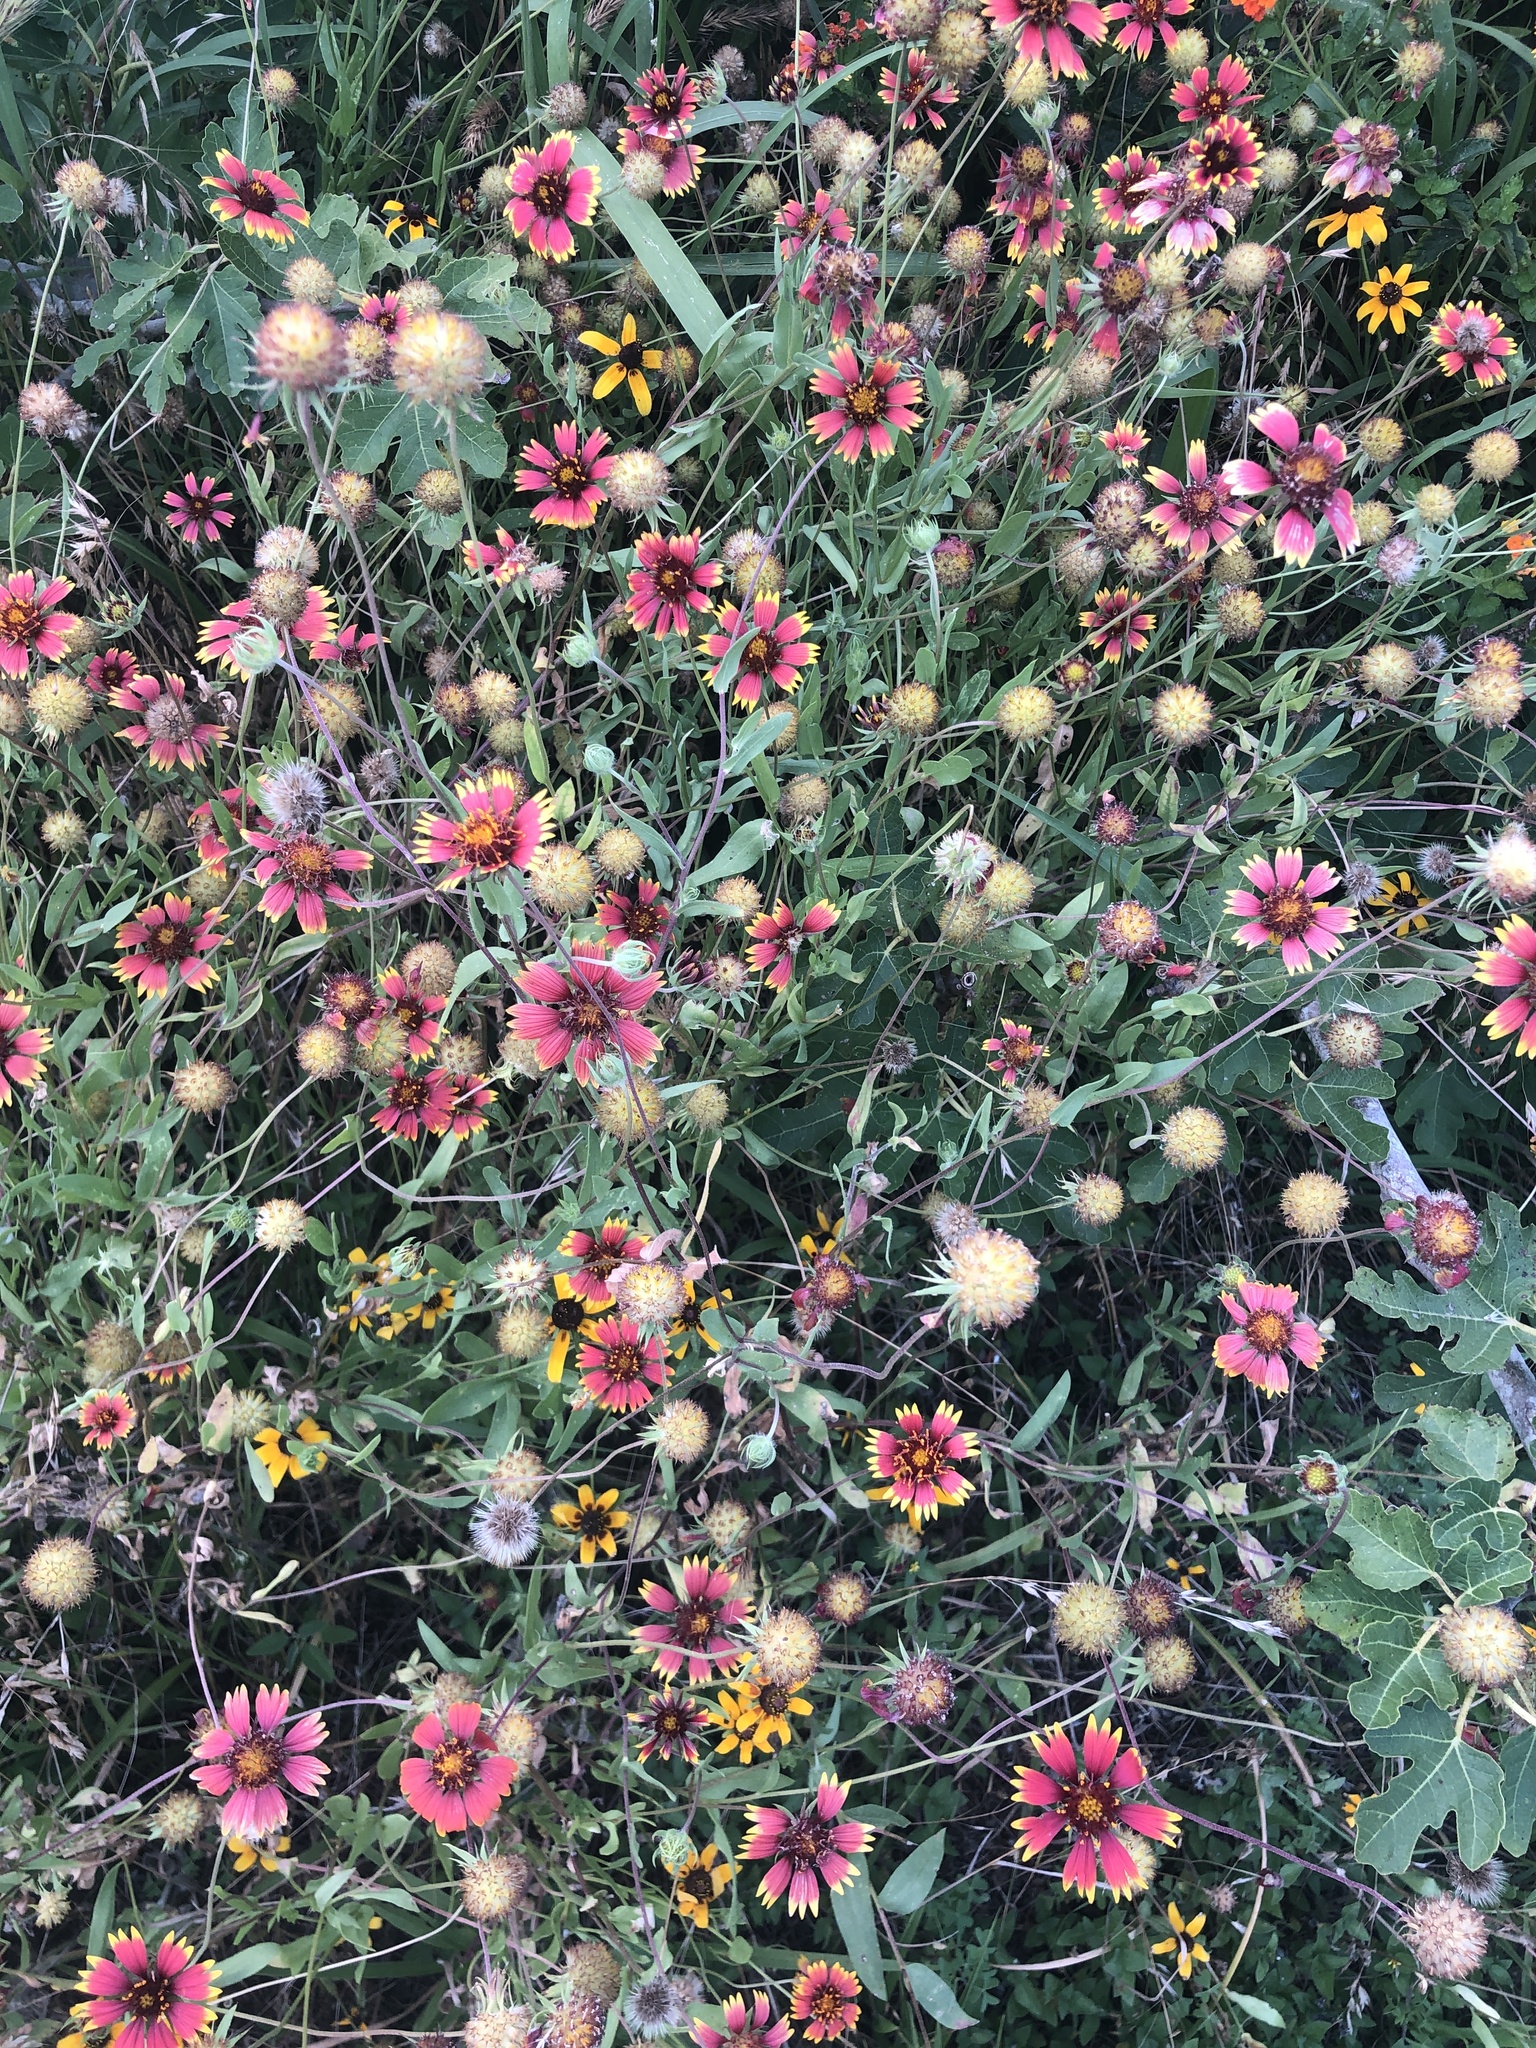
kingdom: Plantae
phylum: Tracheophyta
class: Magnoliopsida
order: Asterales
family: Asteraceae
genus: Gaillardia
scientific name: Gaillardia pulchella
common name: Firewheel
